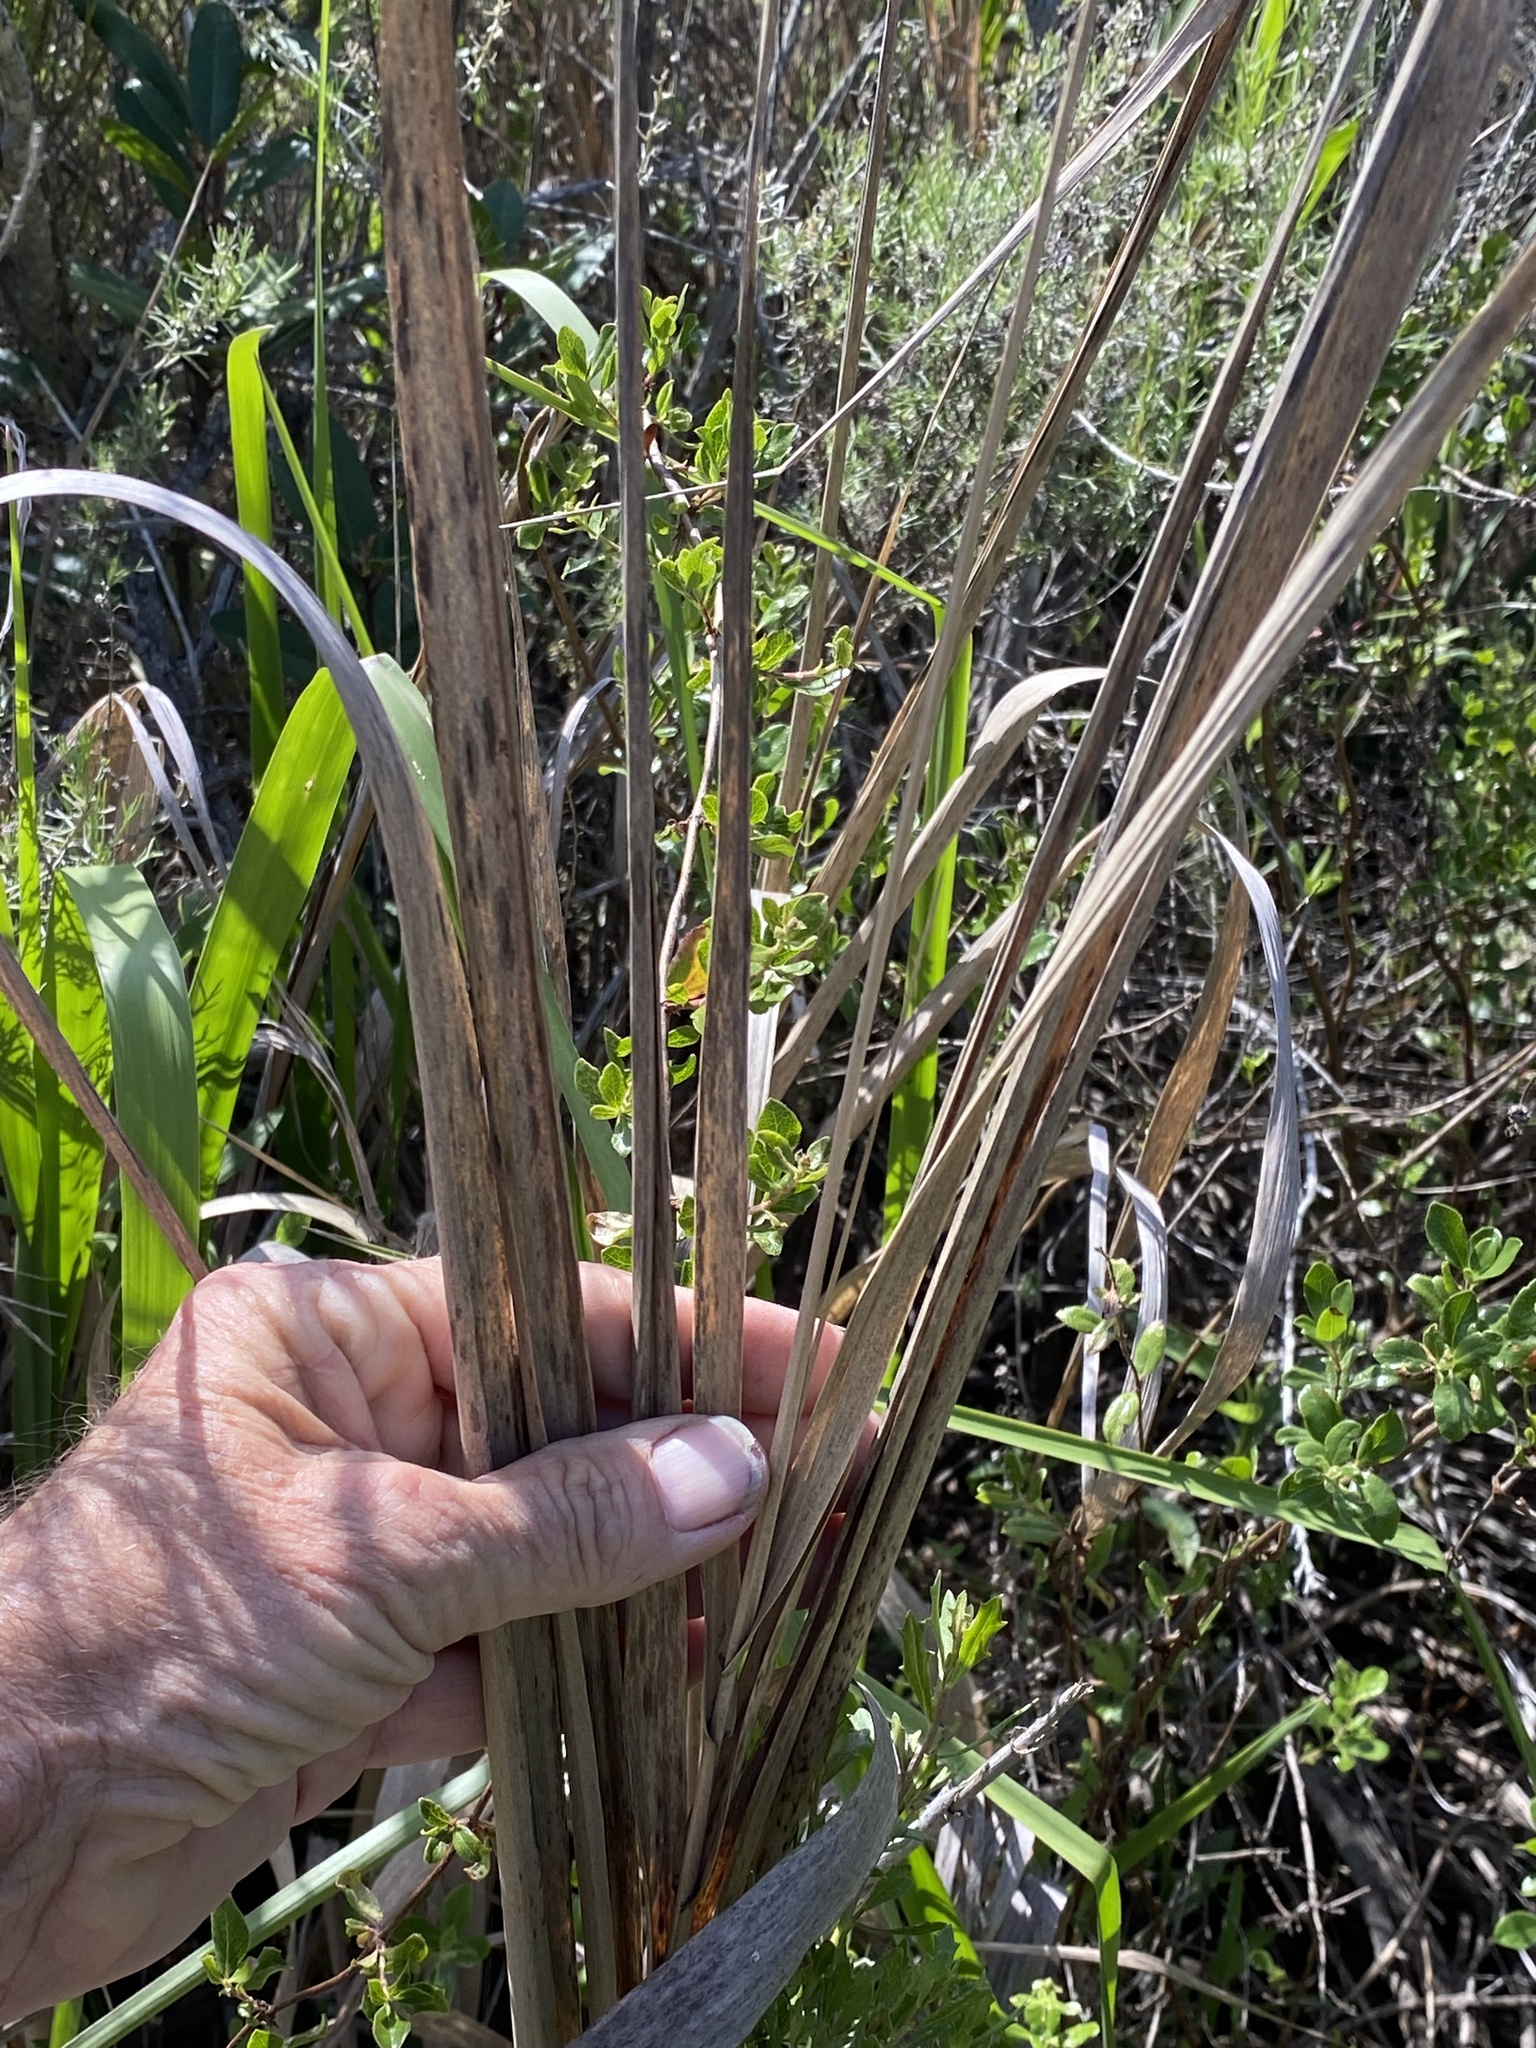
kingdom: Plantae
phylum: Tracheophyta
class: Liliopsida
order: Poales
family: Poaceae
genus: Leymus
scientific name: Leymus condensatus
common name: Giant wild rye
